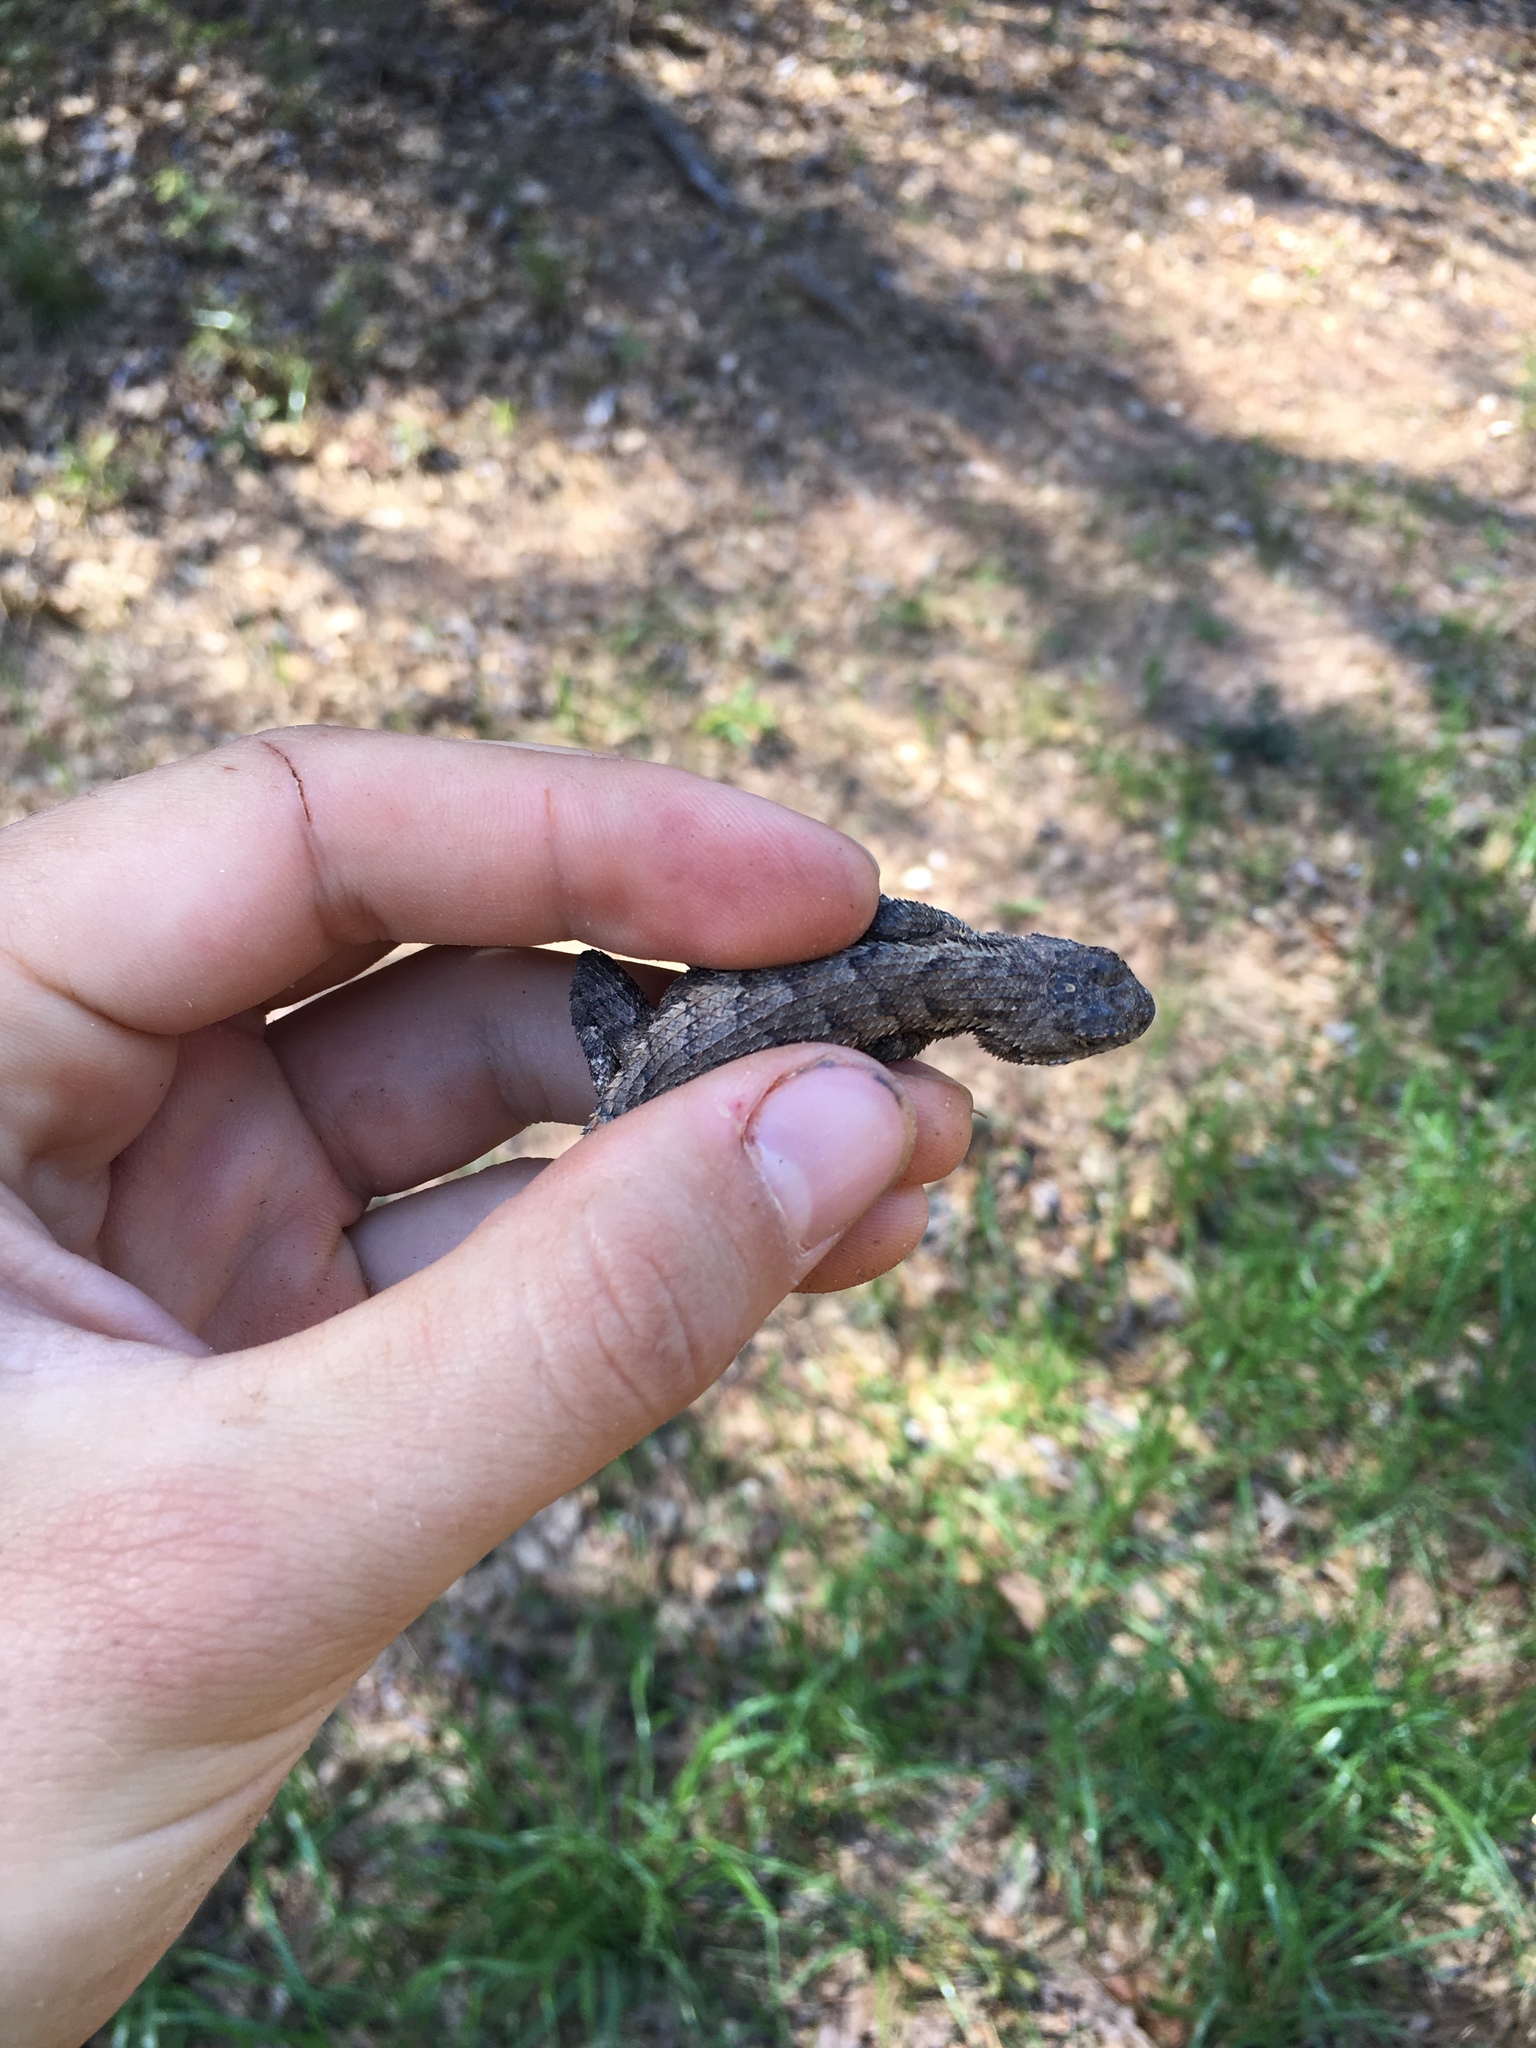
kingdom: Animalia
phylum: Chordata
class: Squamata
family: Phrynosomatidae
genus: Sceloporus
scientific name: Sceloporus undulatus
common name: Eastern fence lizard
